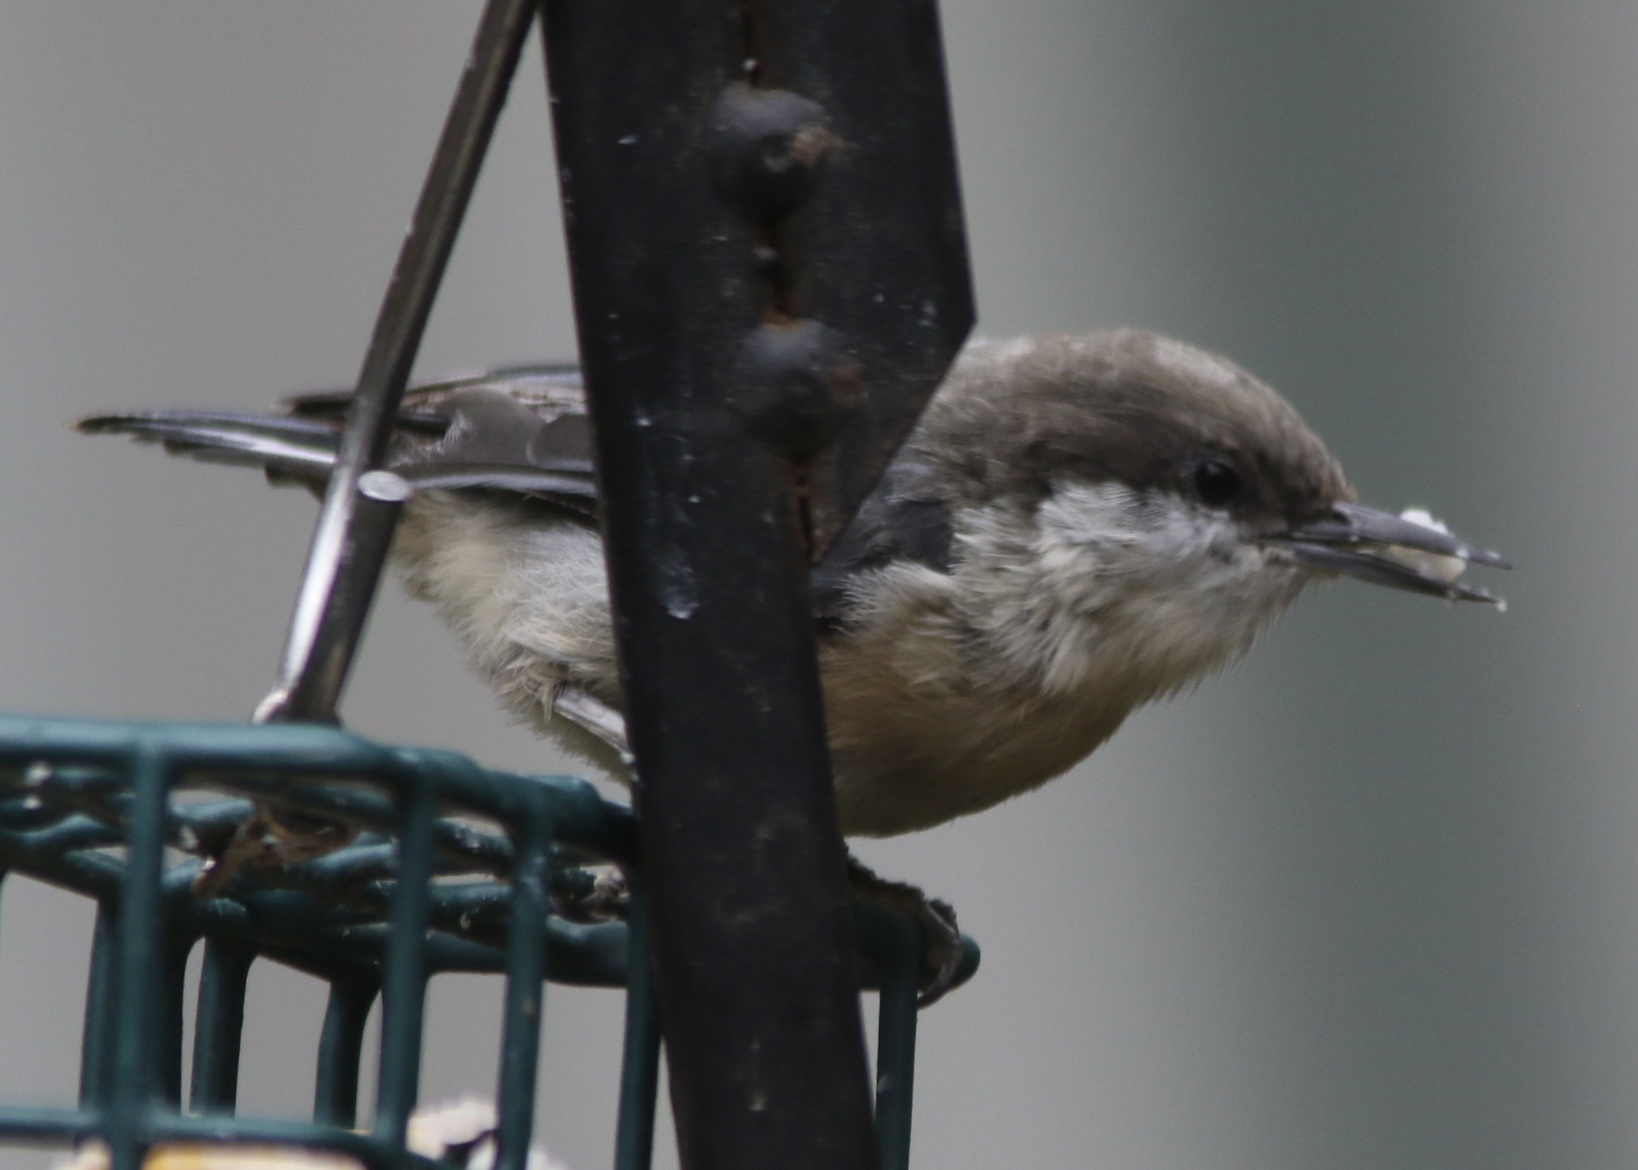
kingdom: Animalia
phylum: Chordata
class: Aves
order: Passeriformes
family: Sittidae
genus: Sitta
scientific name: Sitta pygmaea
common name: Pygmy nuthatch
